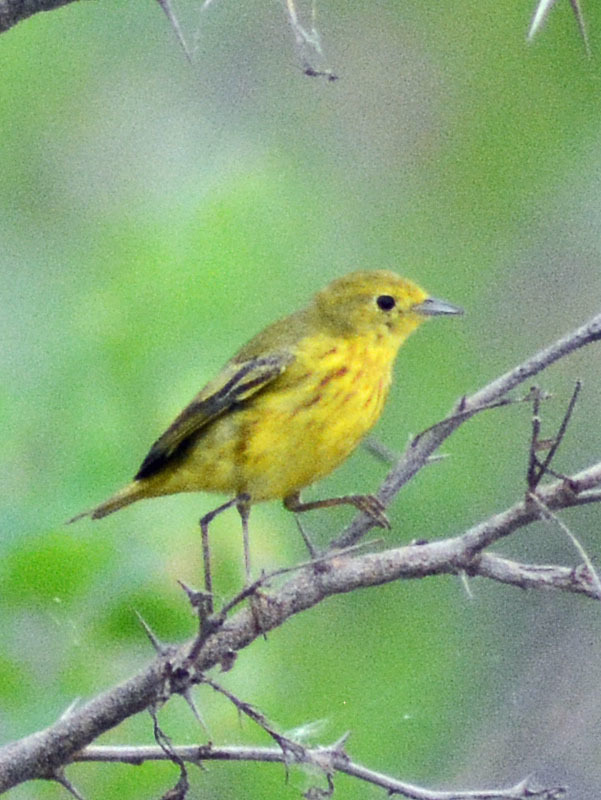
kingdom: Animalia
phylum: Chordata
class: Aves
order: Passeriformes
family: Parulidae
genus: Setophaga
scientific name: Setophaga petechia
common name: Yellow warbler
